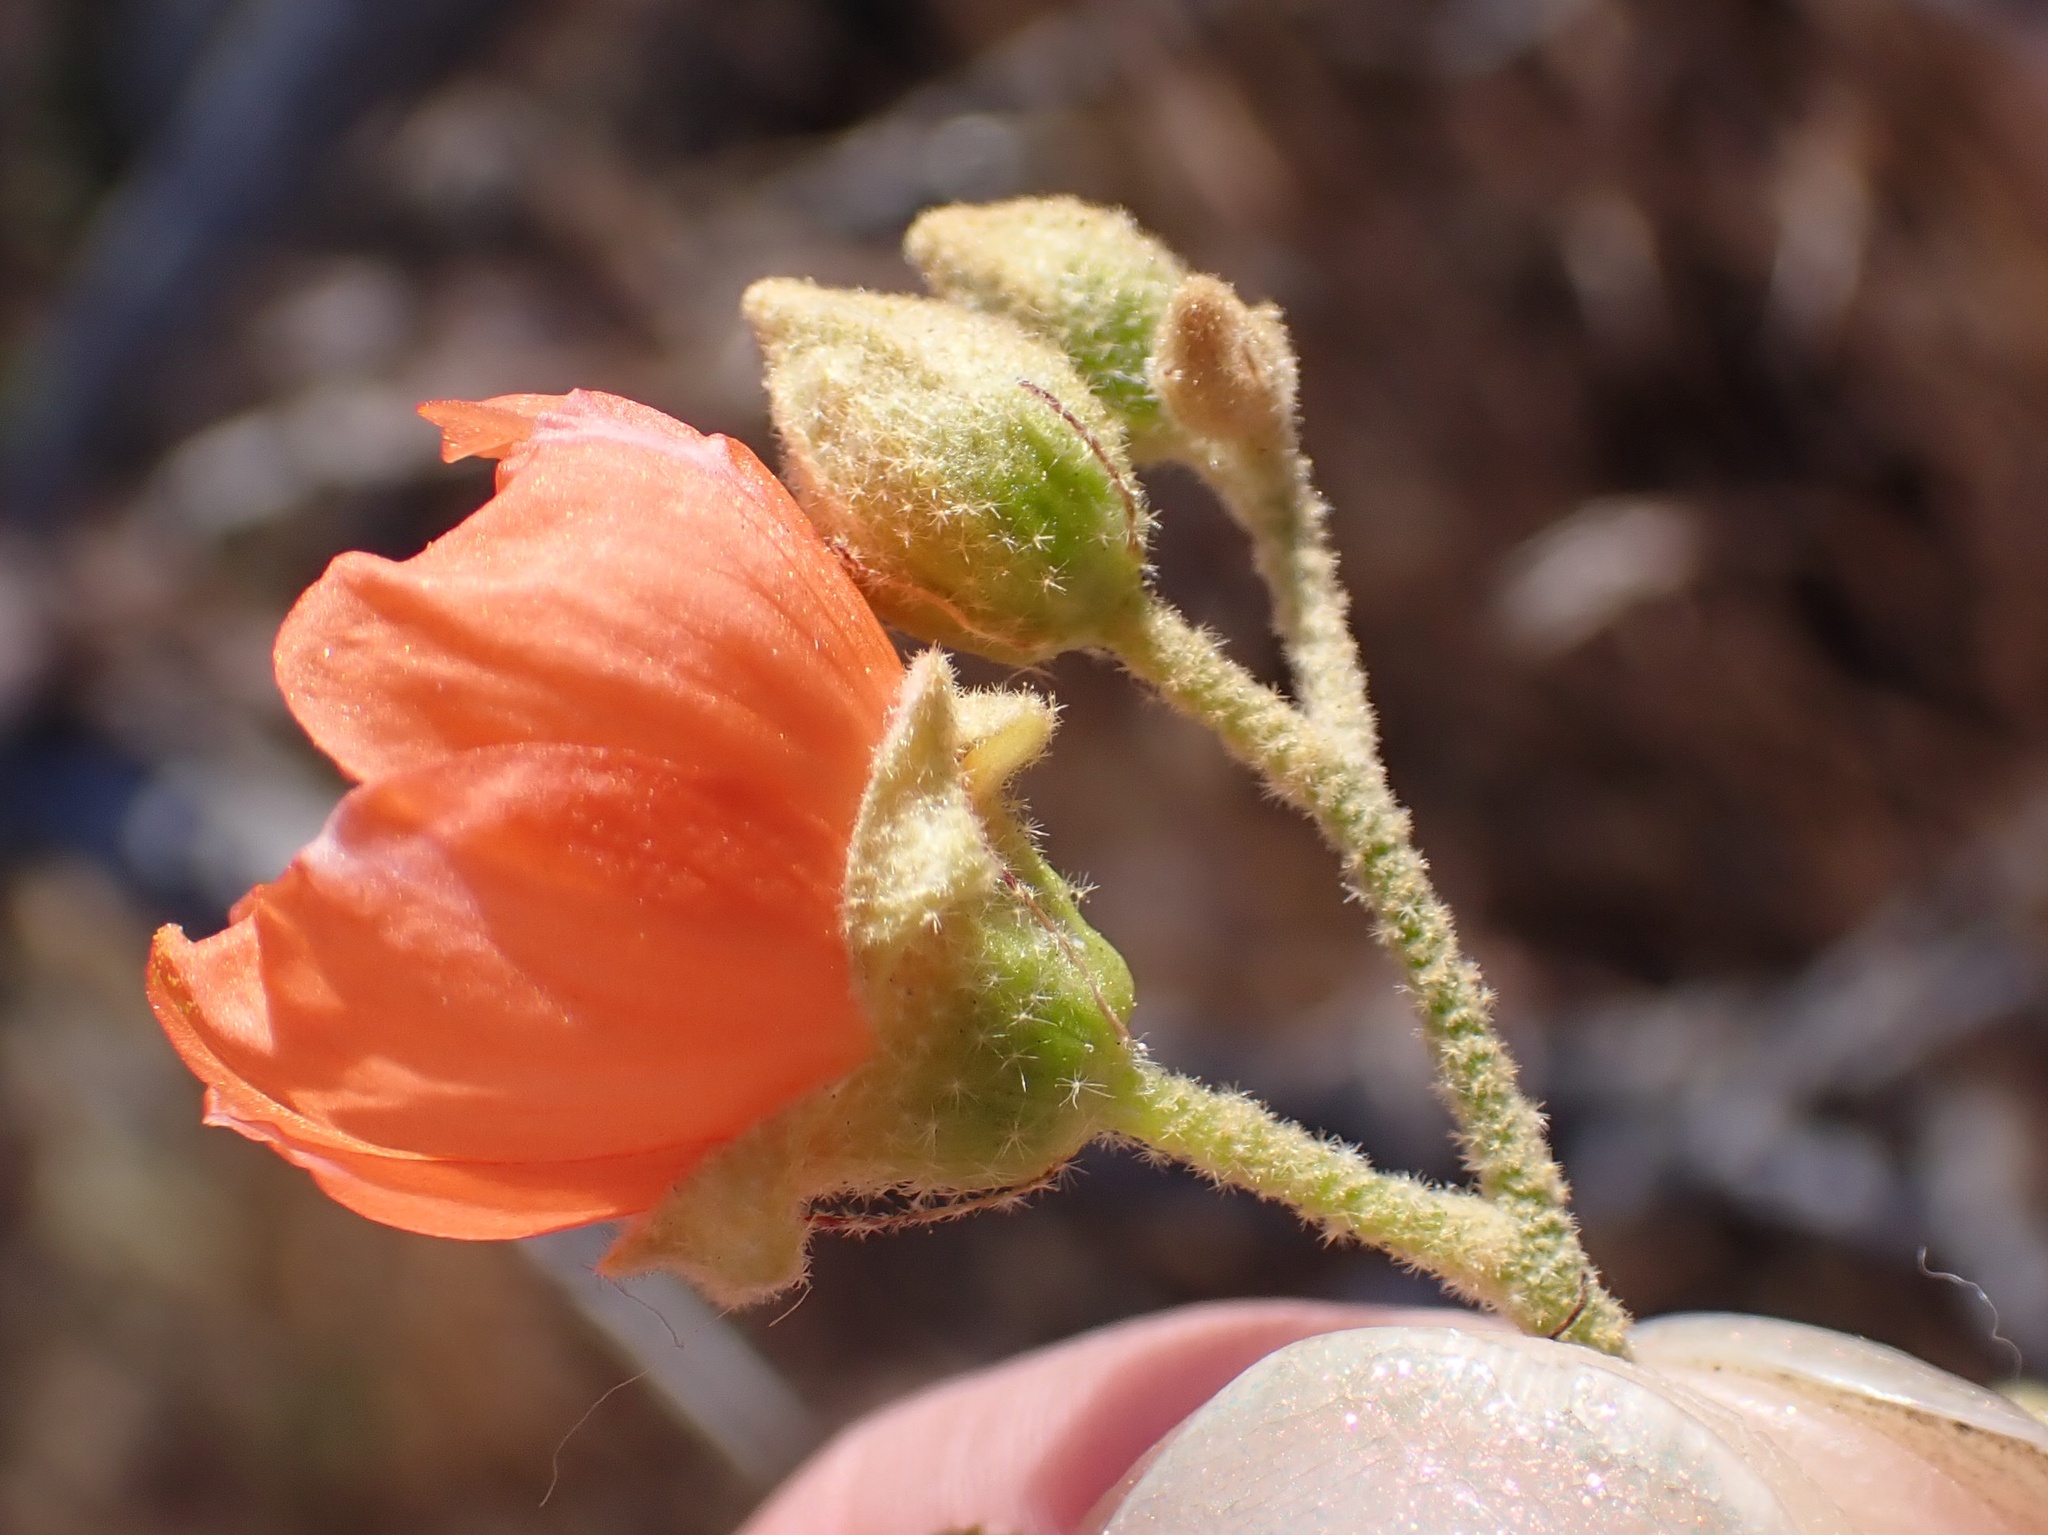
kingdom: Plantae
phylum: Tracheophyta
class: Magnoliopsida
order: Malvales
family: Malvaceae
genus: Sphaeralcea
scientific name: Sphaeralcea ambigua
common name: Apricot globe-mallow
